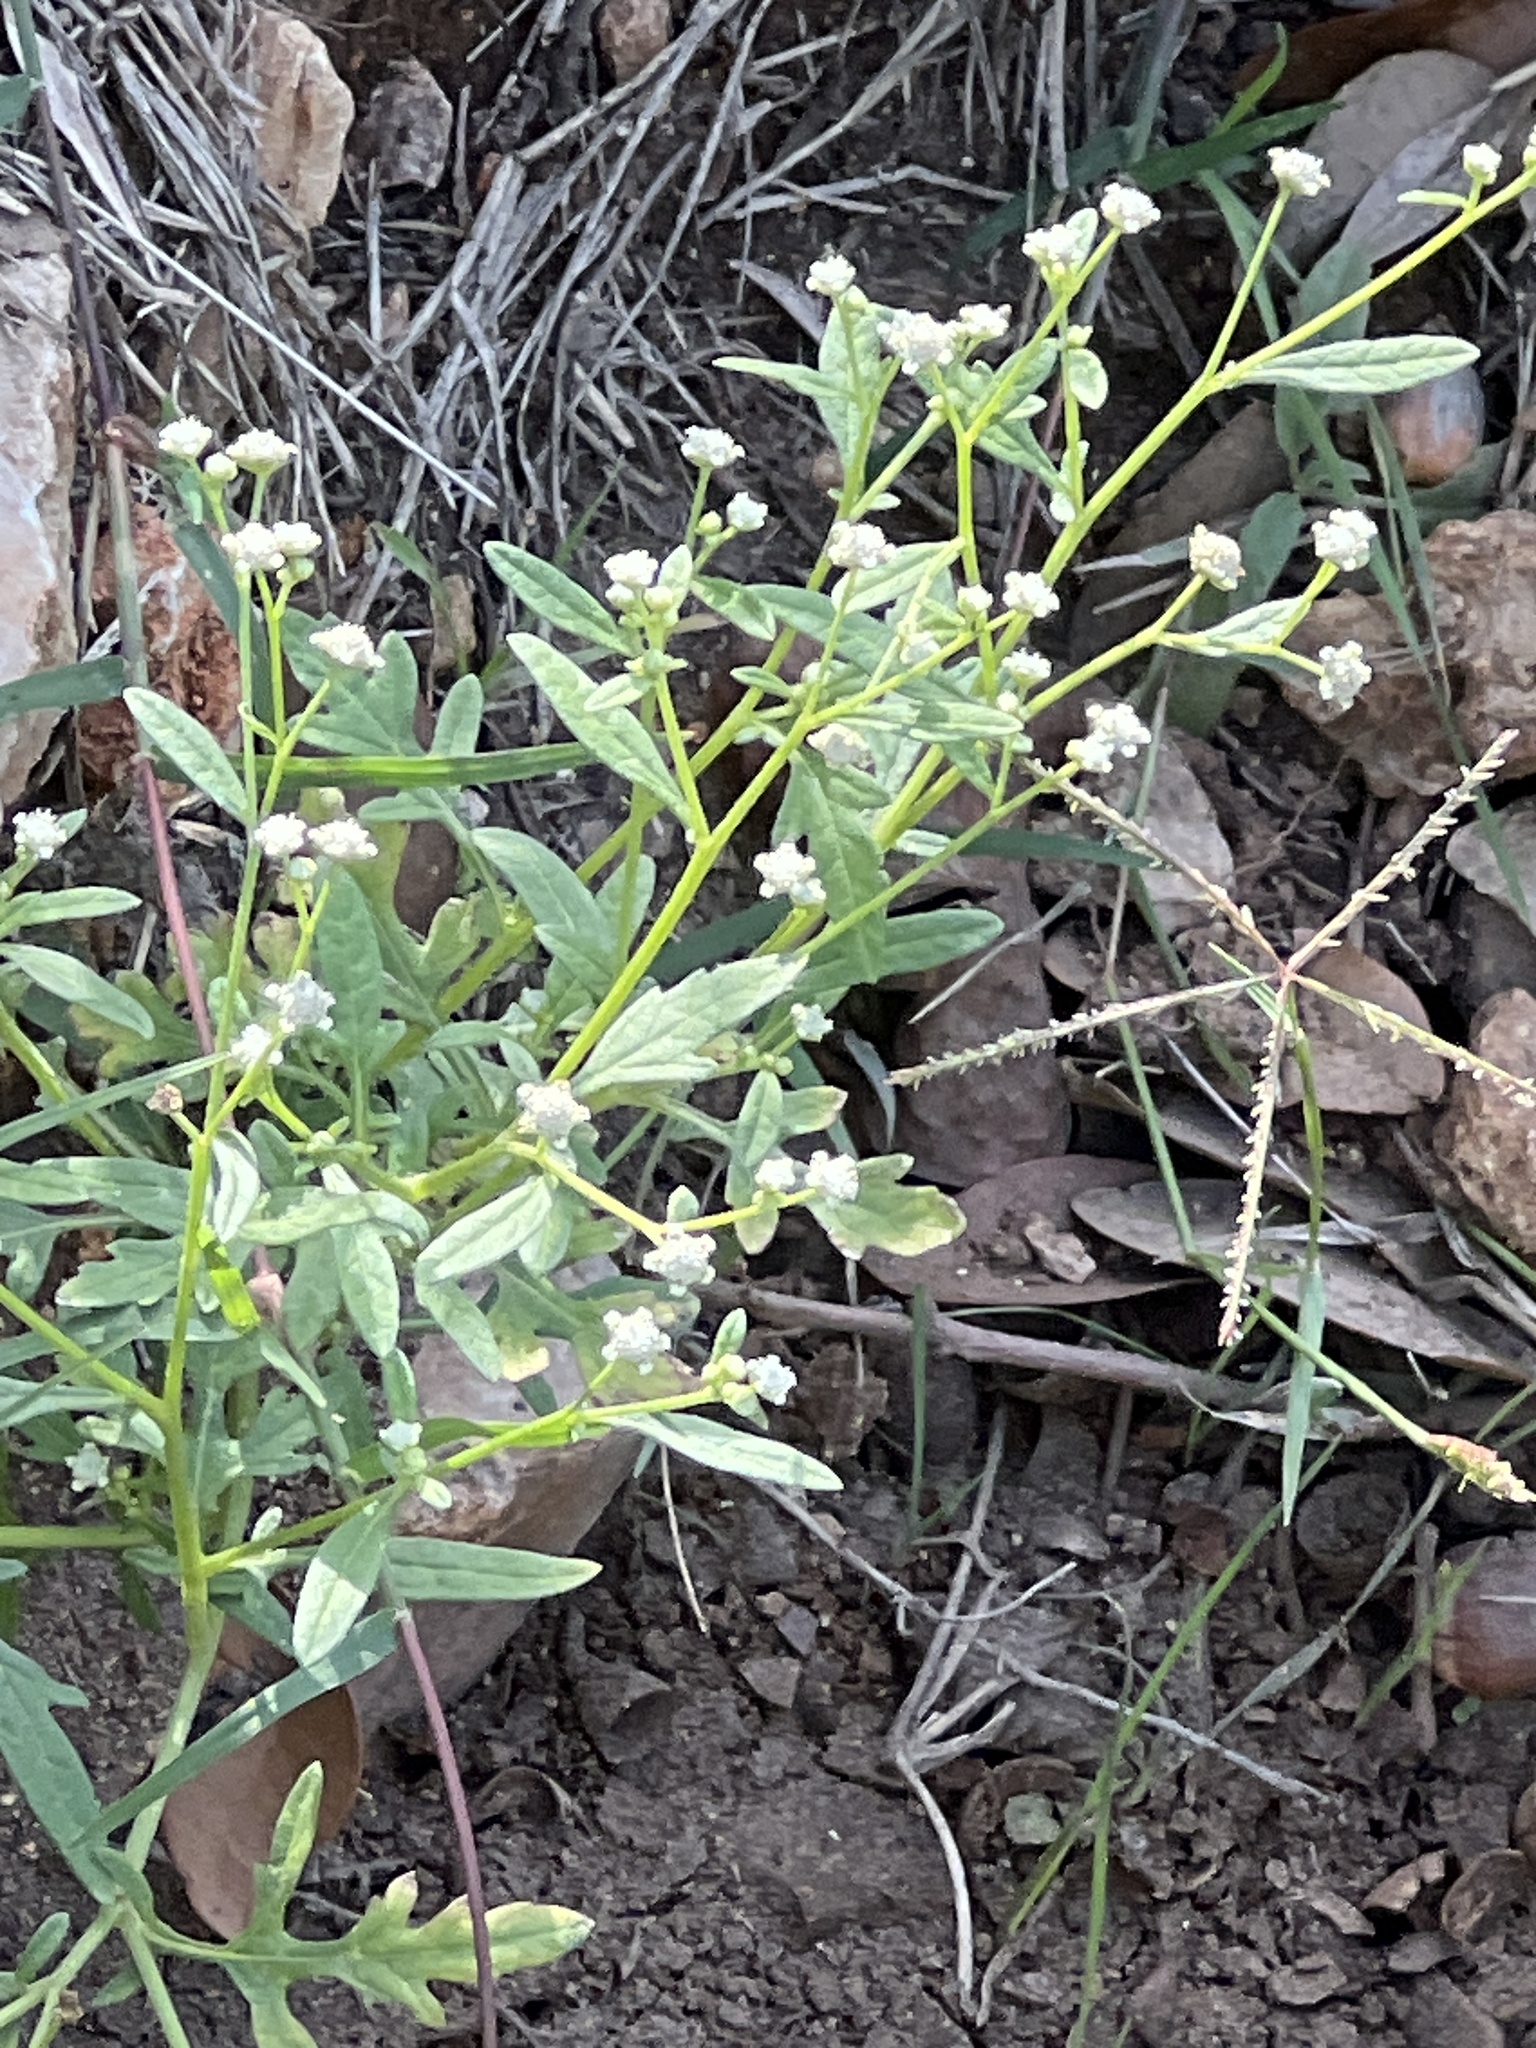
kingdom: Plantae
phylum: Tracheophyta
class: Magnoliopsida
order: Asterales
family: Asteraceae
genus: Parthenium
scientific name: Parthenium hysterophorus
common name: Santa maria feverfew
